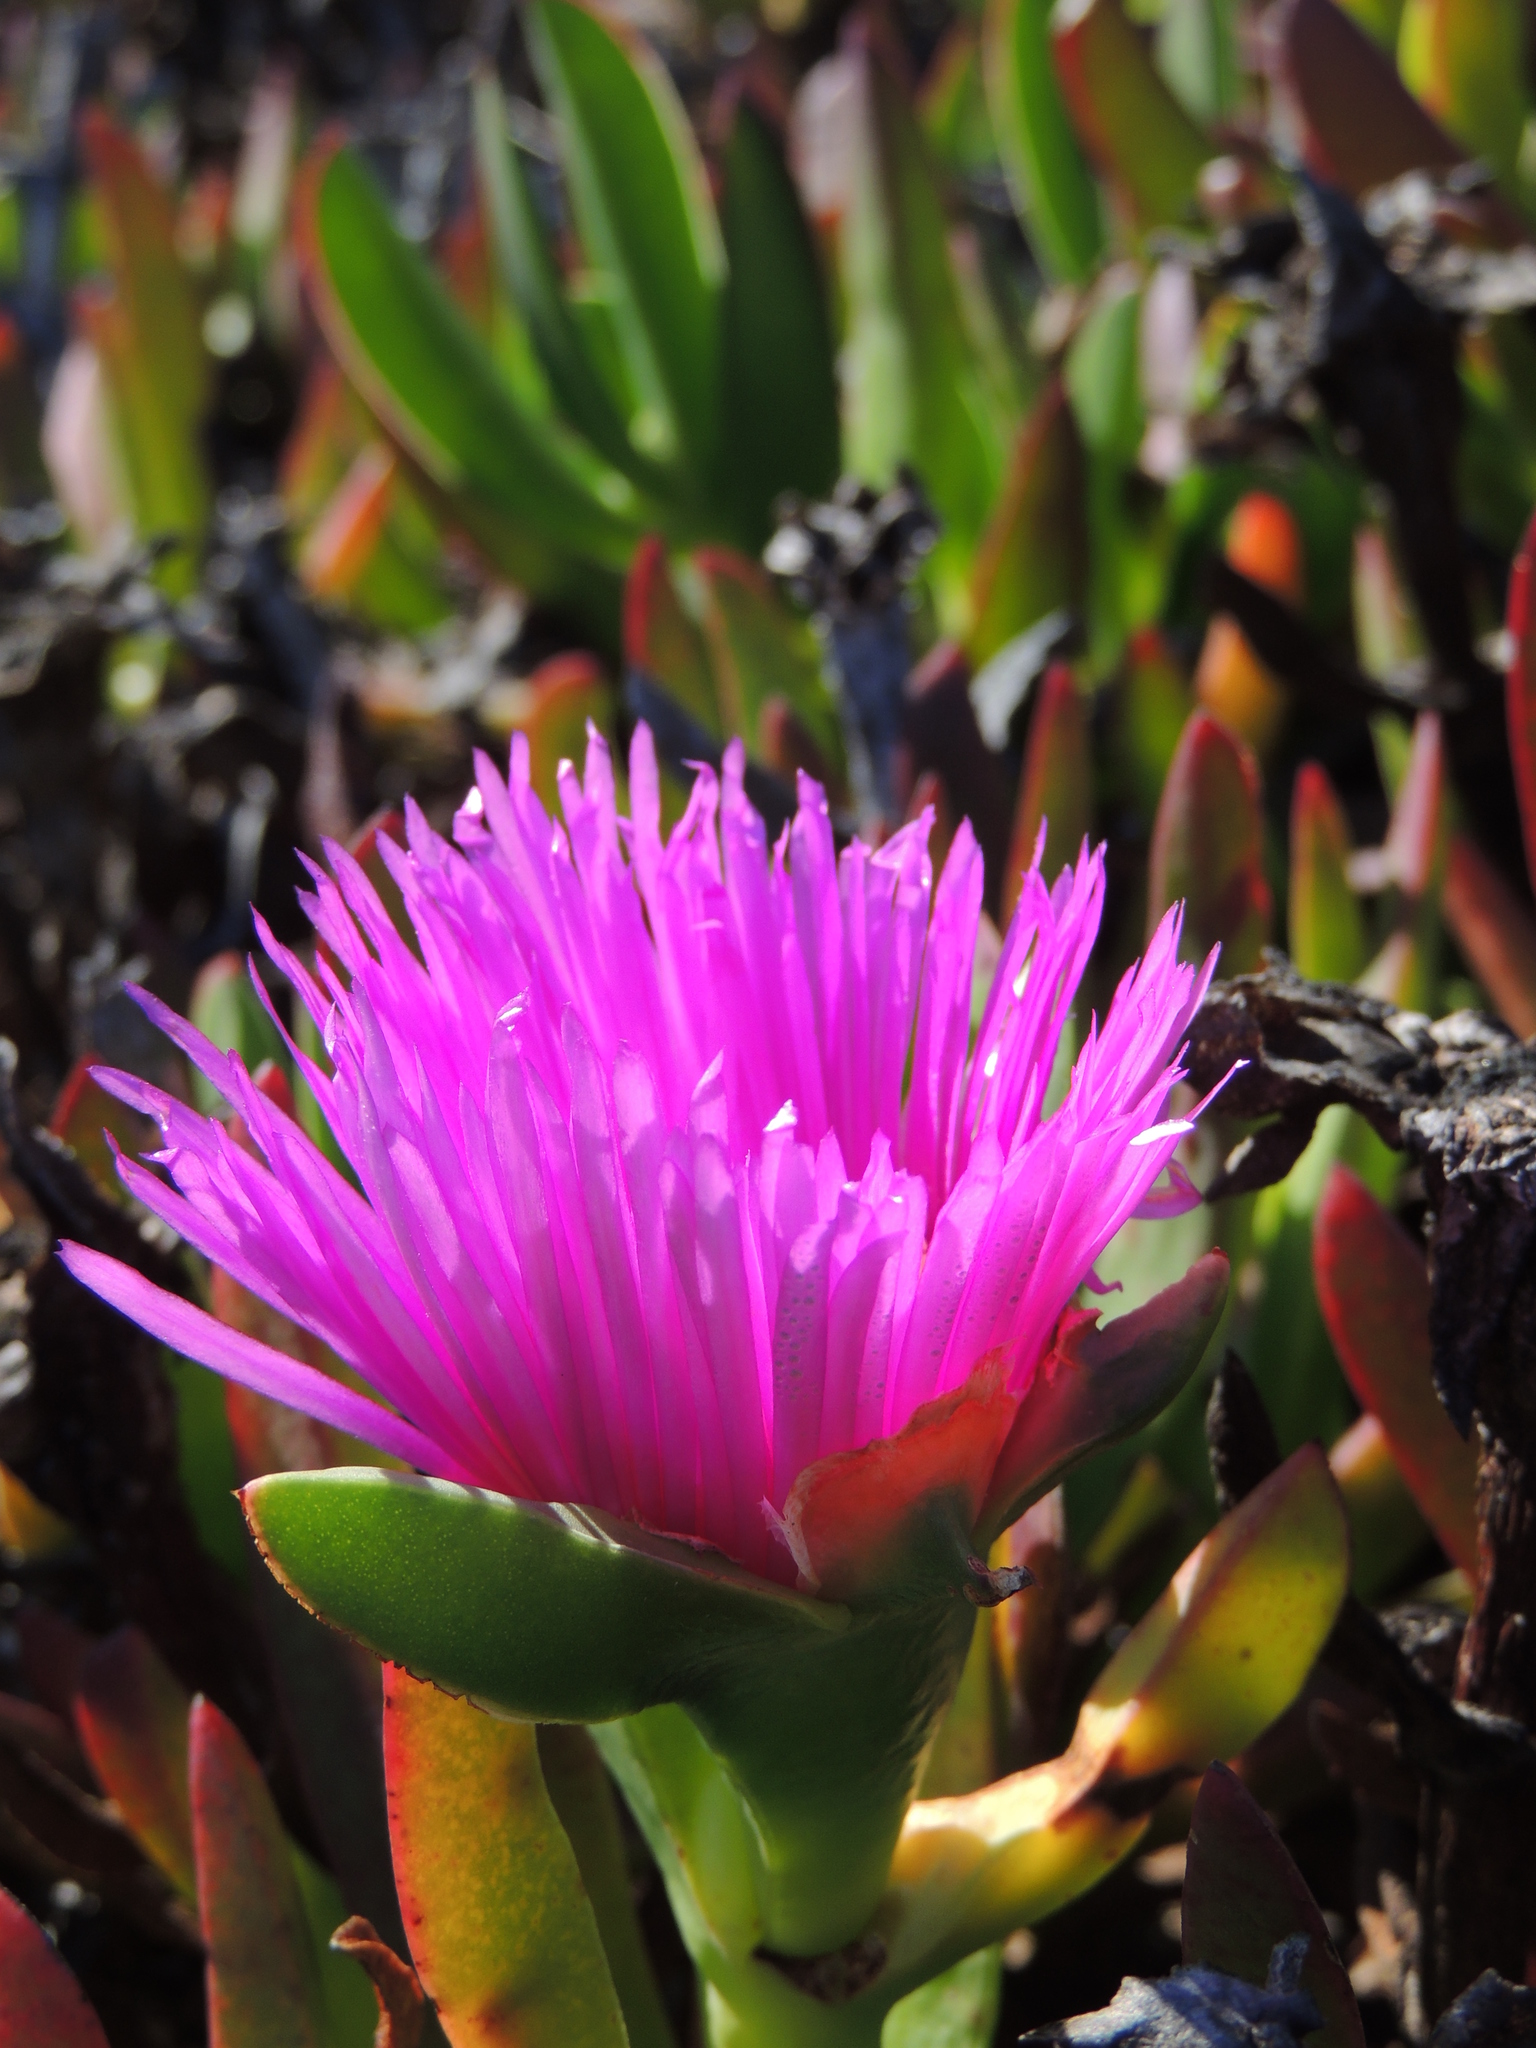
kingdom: Plantae
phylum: Tracheophyta
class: Magnoliopsida
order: Caryophyllales
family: Aizoaceae
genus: Carpobrotus
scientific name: Carpobrotus chilensis
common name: Sea fig
